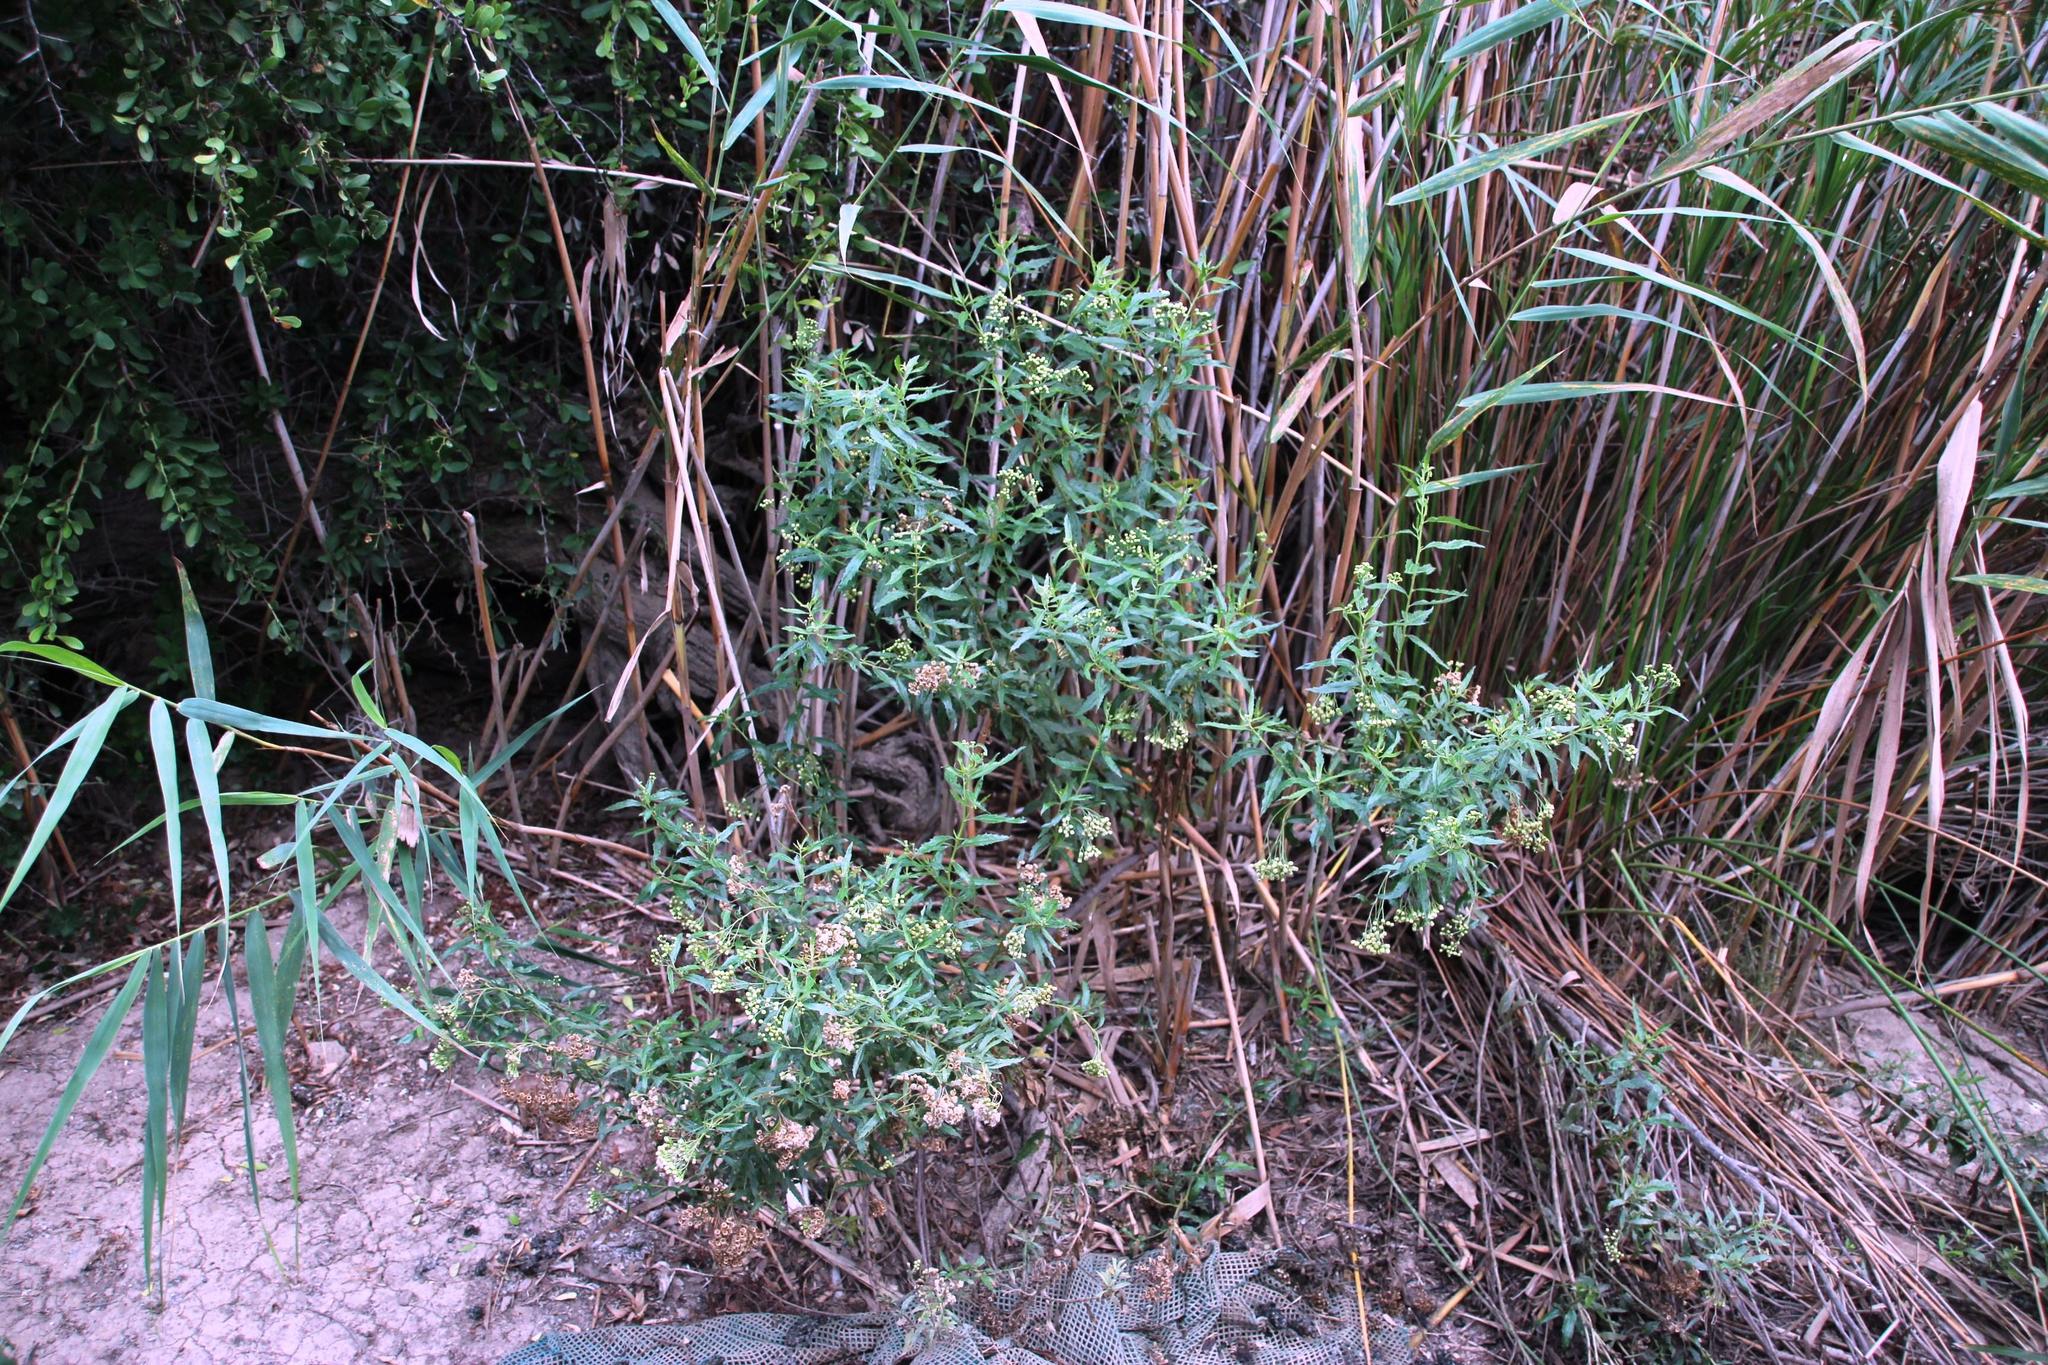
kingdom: Plantae
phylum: Tracheophyta
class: Magnoliopsida
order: Asterales
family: Asteraceae
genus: Nidorella
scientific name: Nidorella ivifolia
